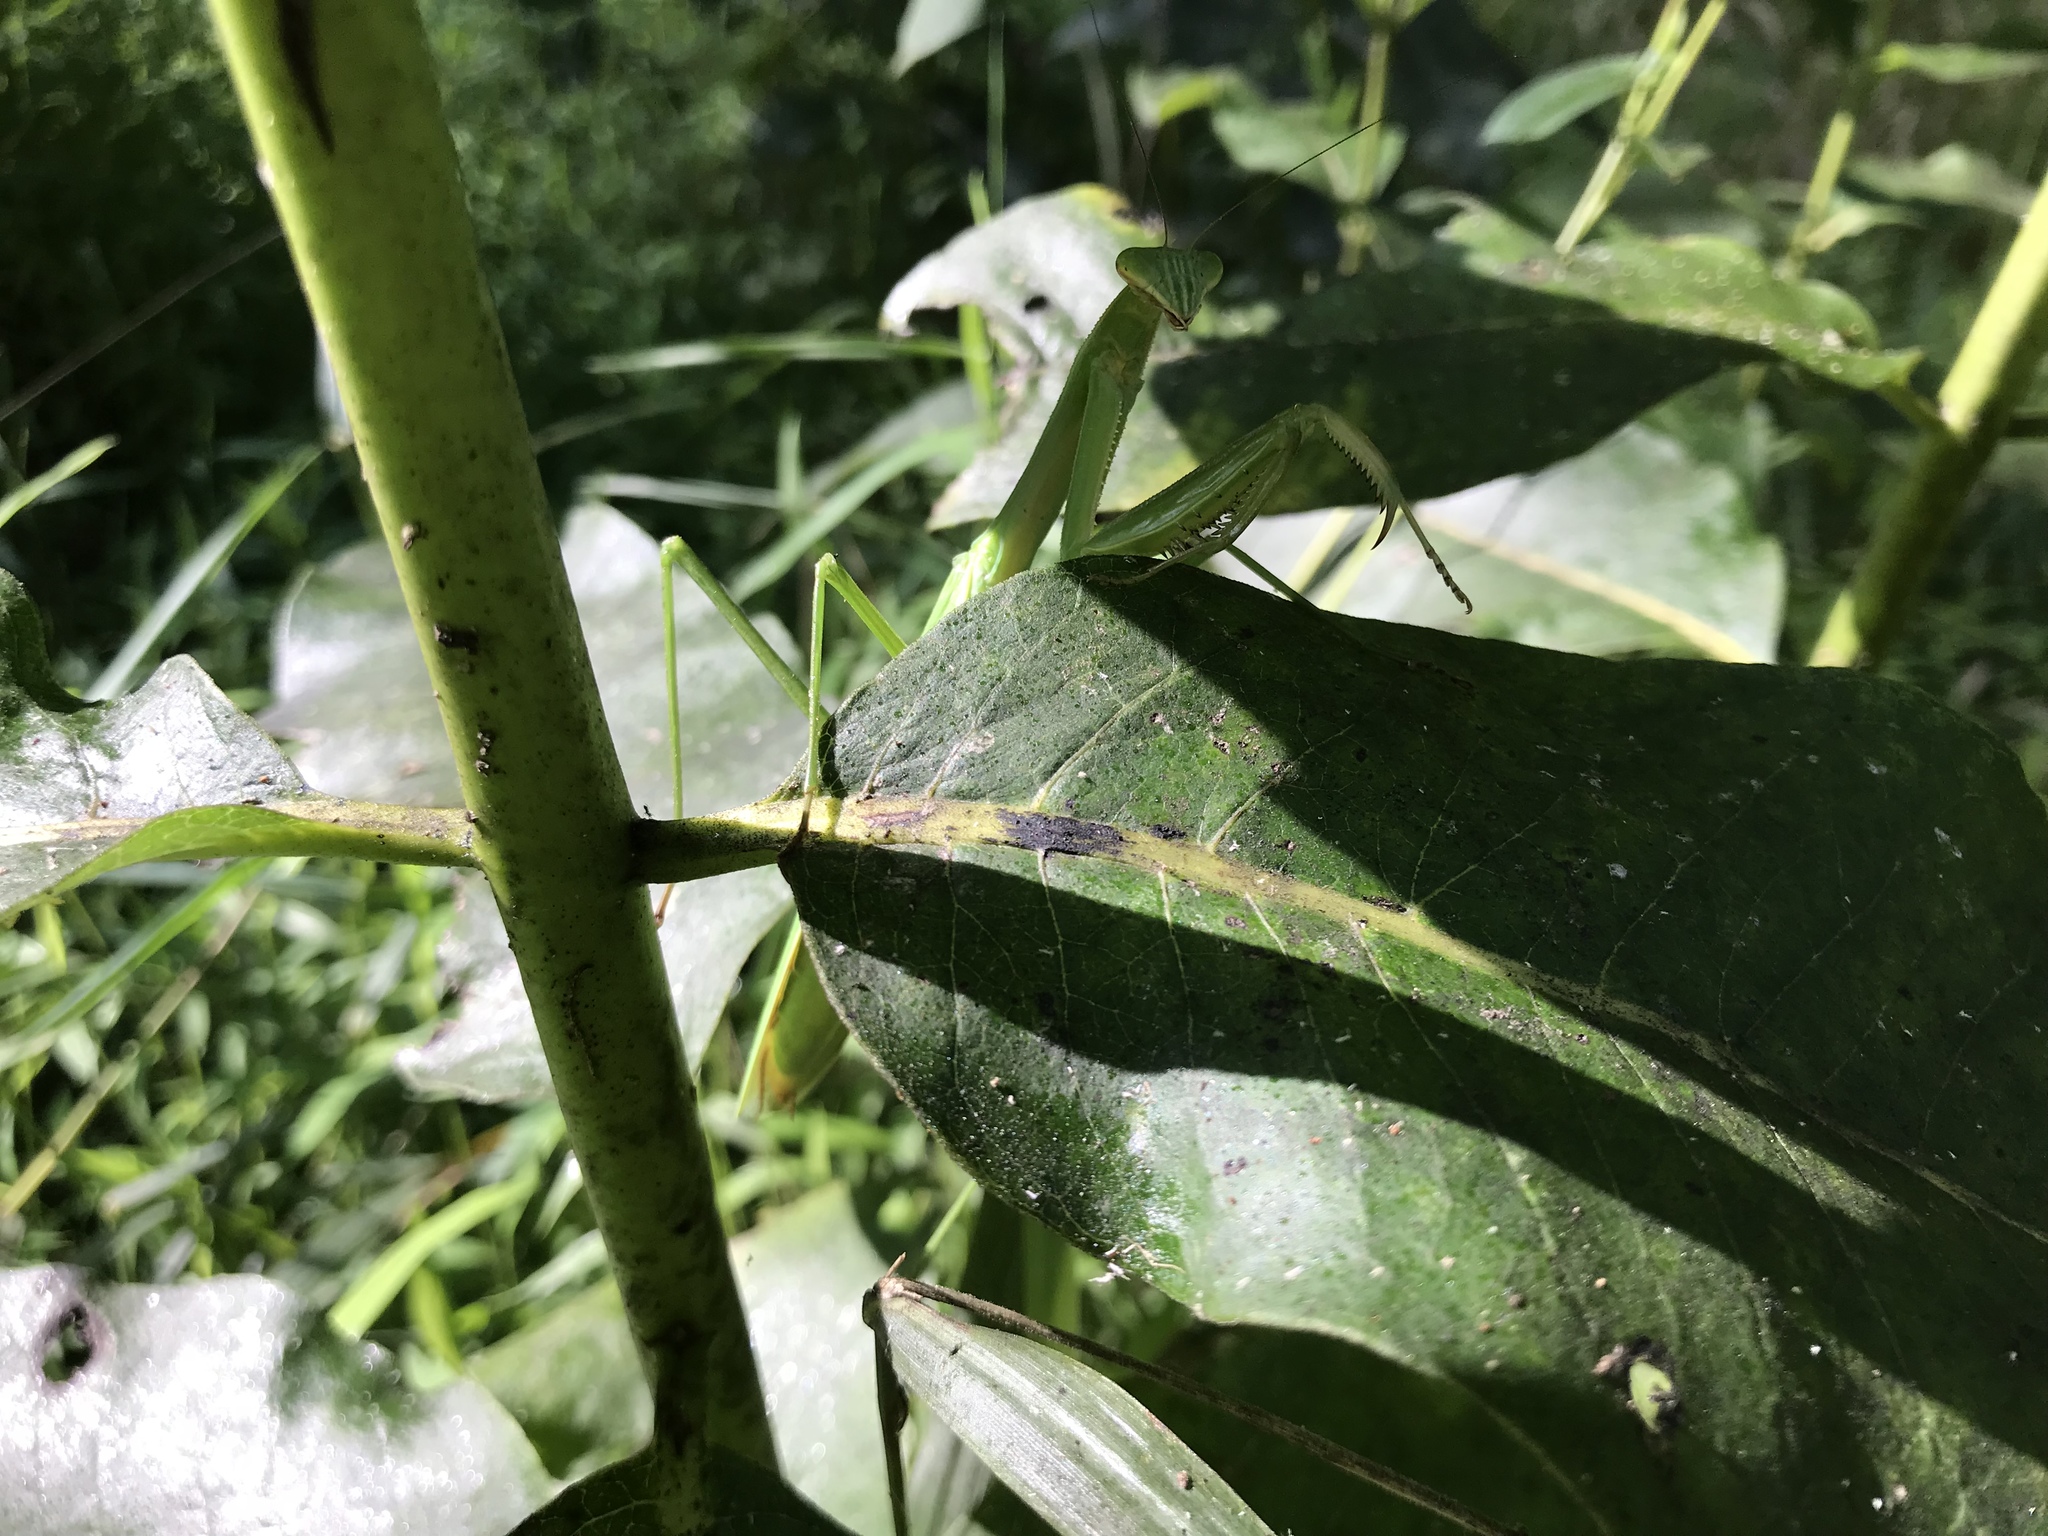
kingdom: Animalia
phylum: Arthropoda
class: Insecta
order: Mantodea
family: Mantidae
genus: Tenodera
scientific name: Tenodera sinensis
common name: Chinese mantis
